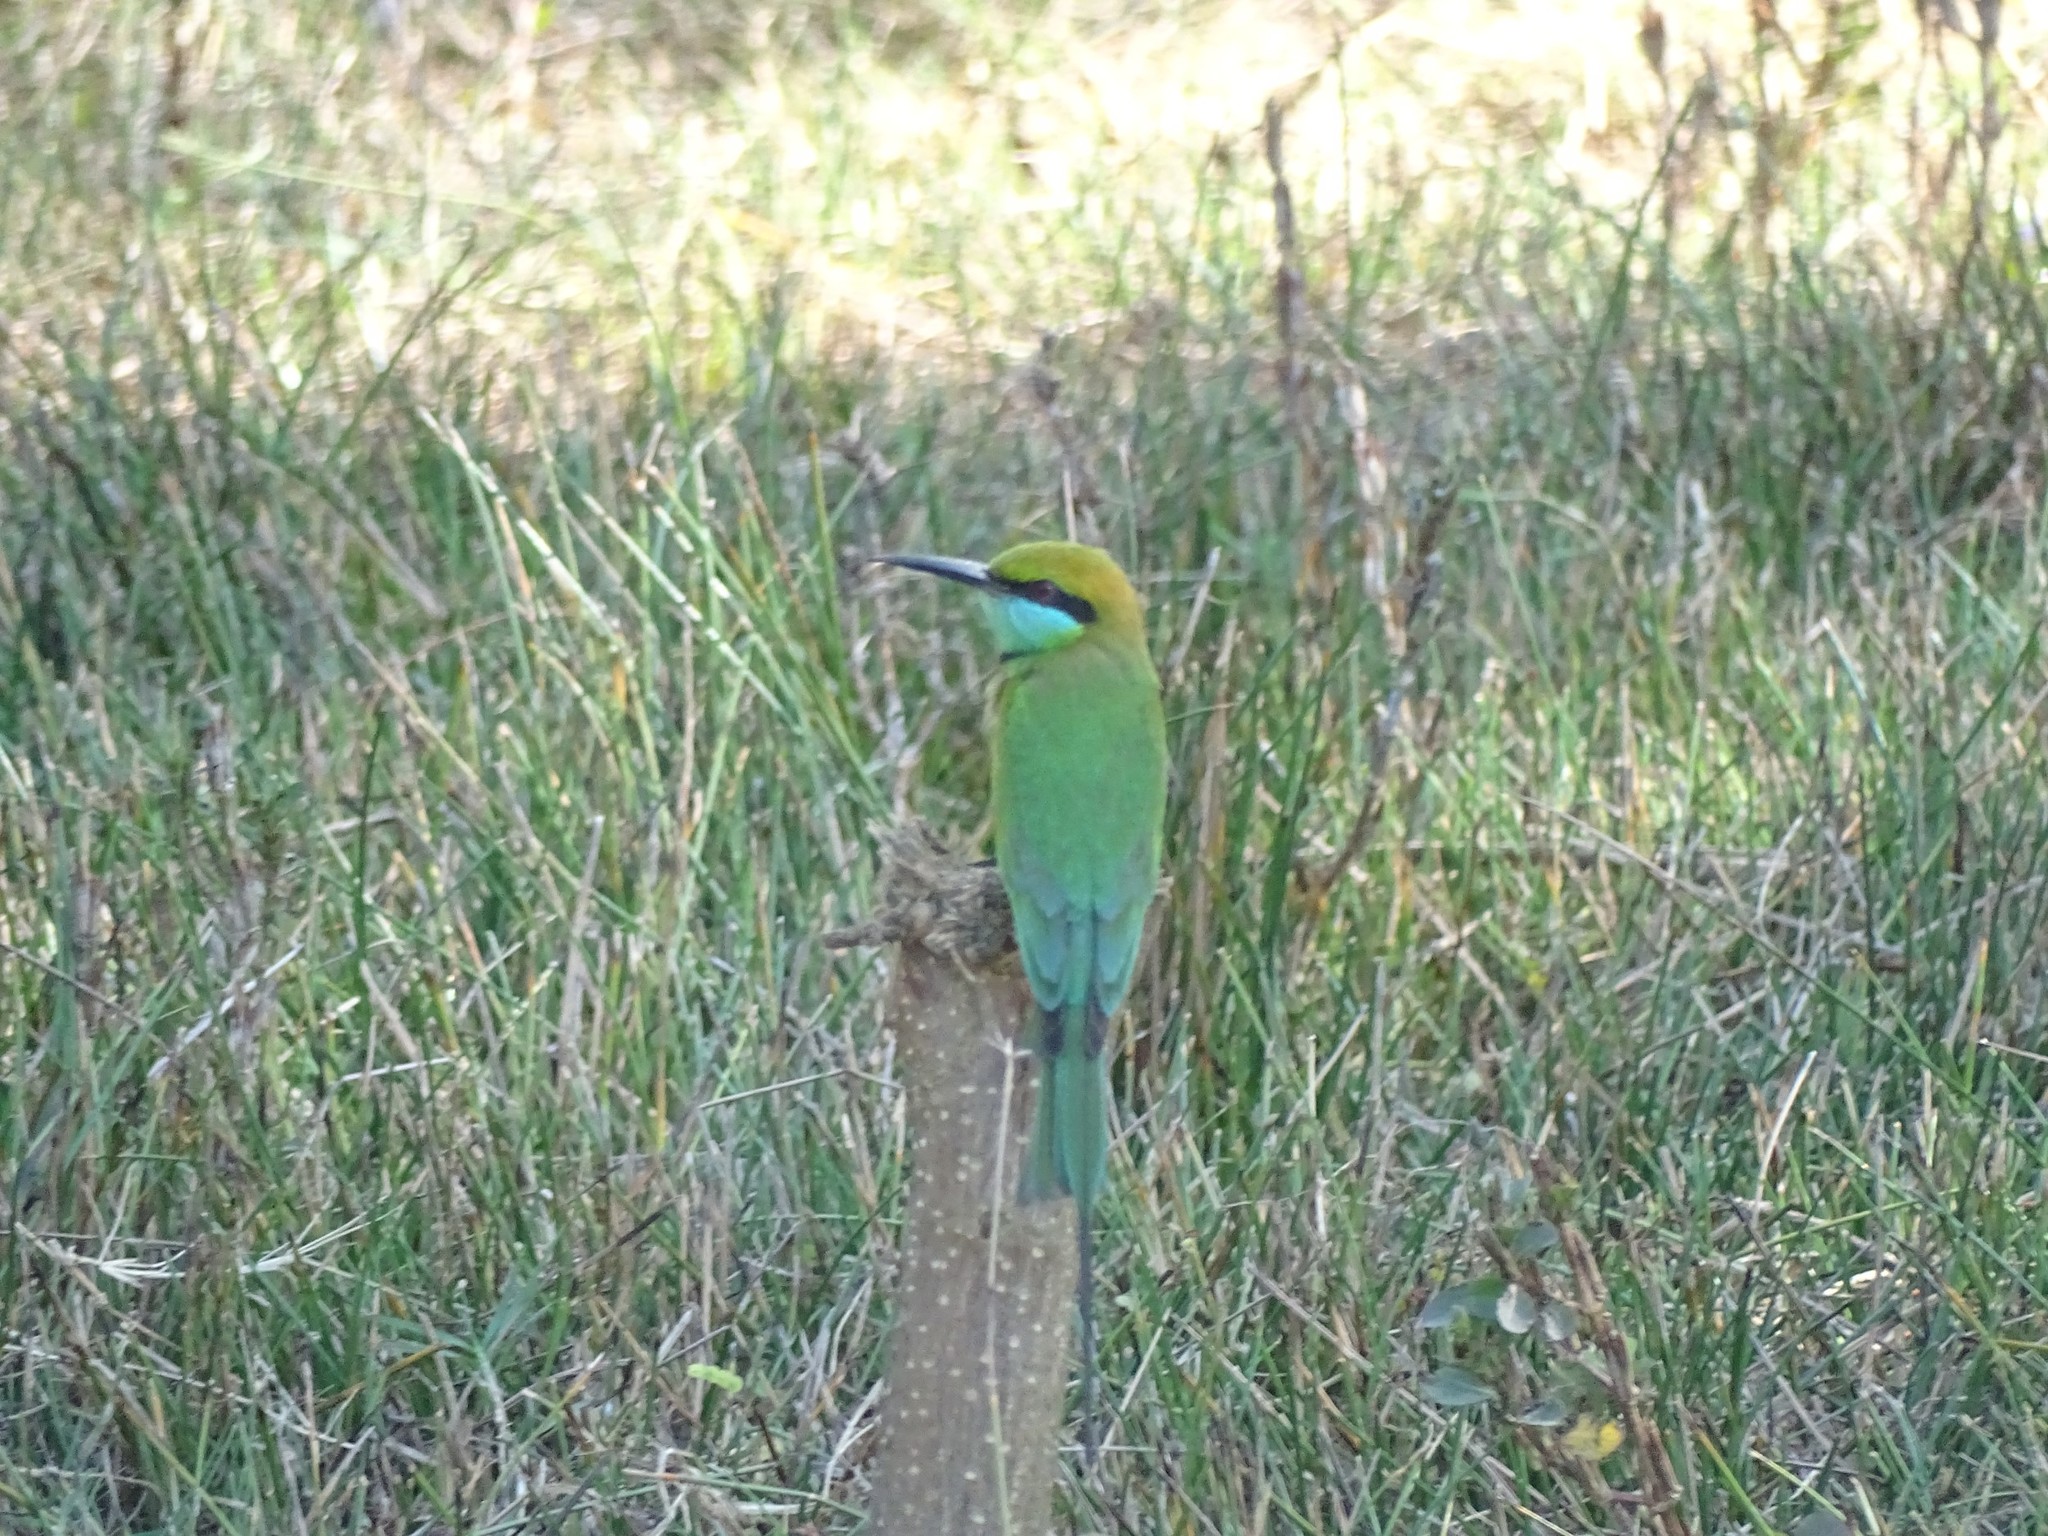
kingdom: Animalia
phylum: Chordata
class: Aves
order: Coraciiformes
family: Meropidae
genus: Merops
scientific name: Merops orientalis
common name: Green bee-eater
